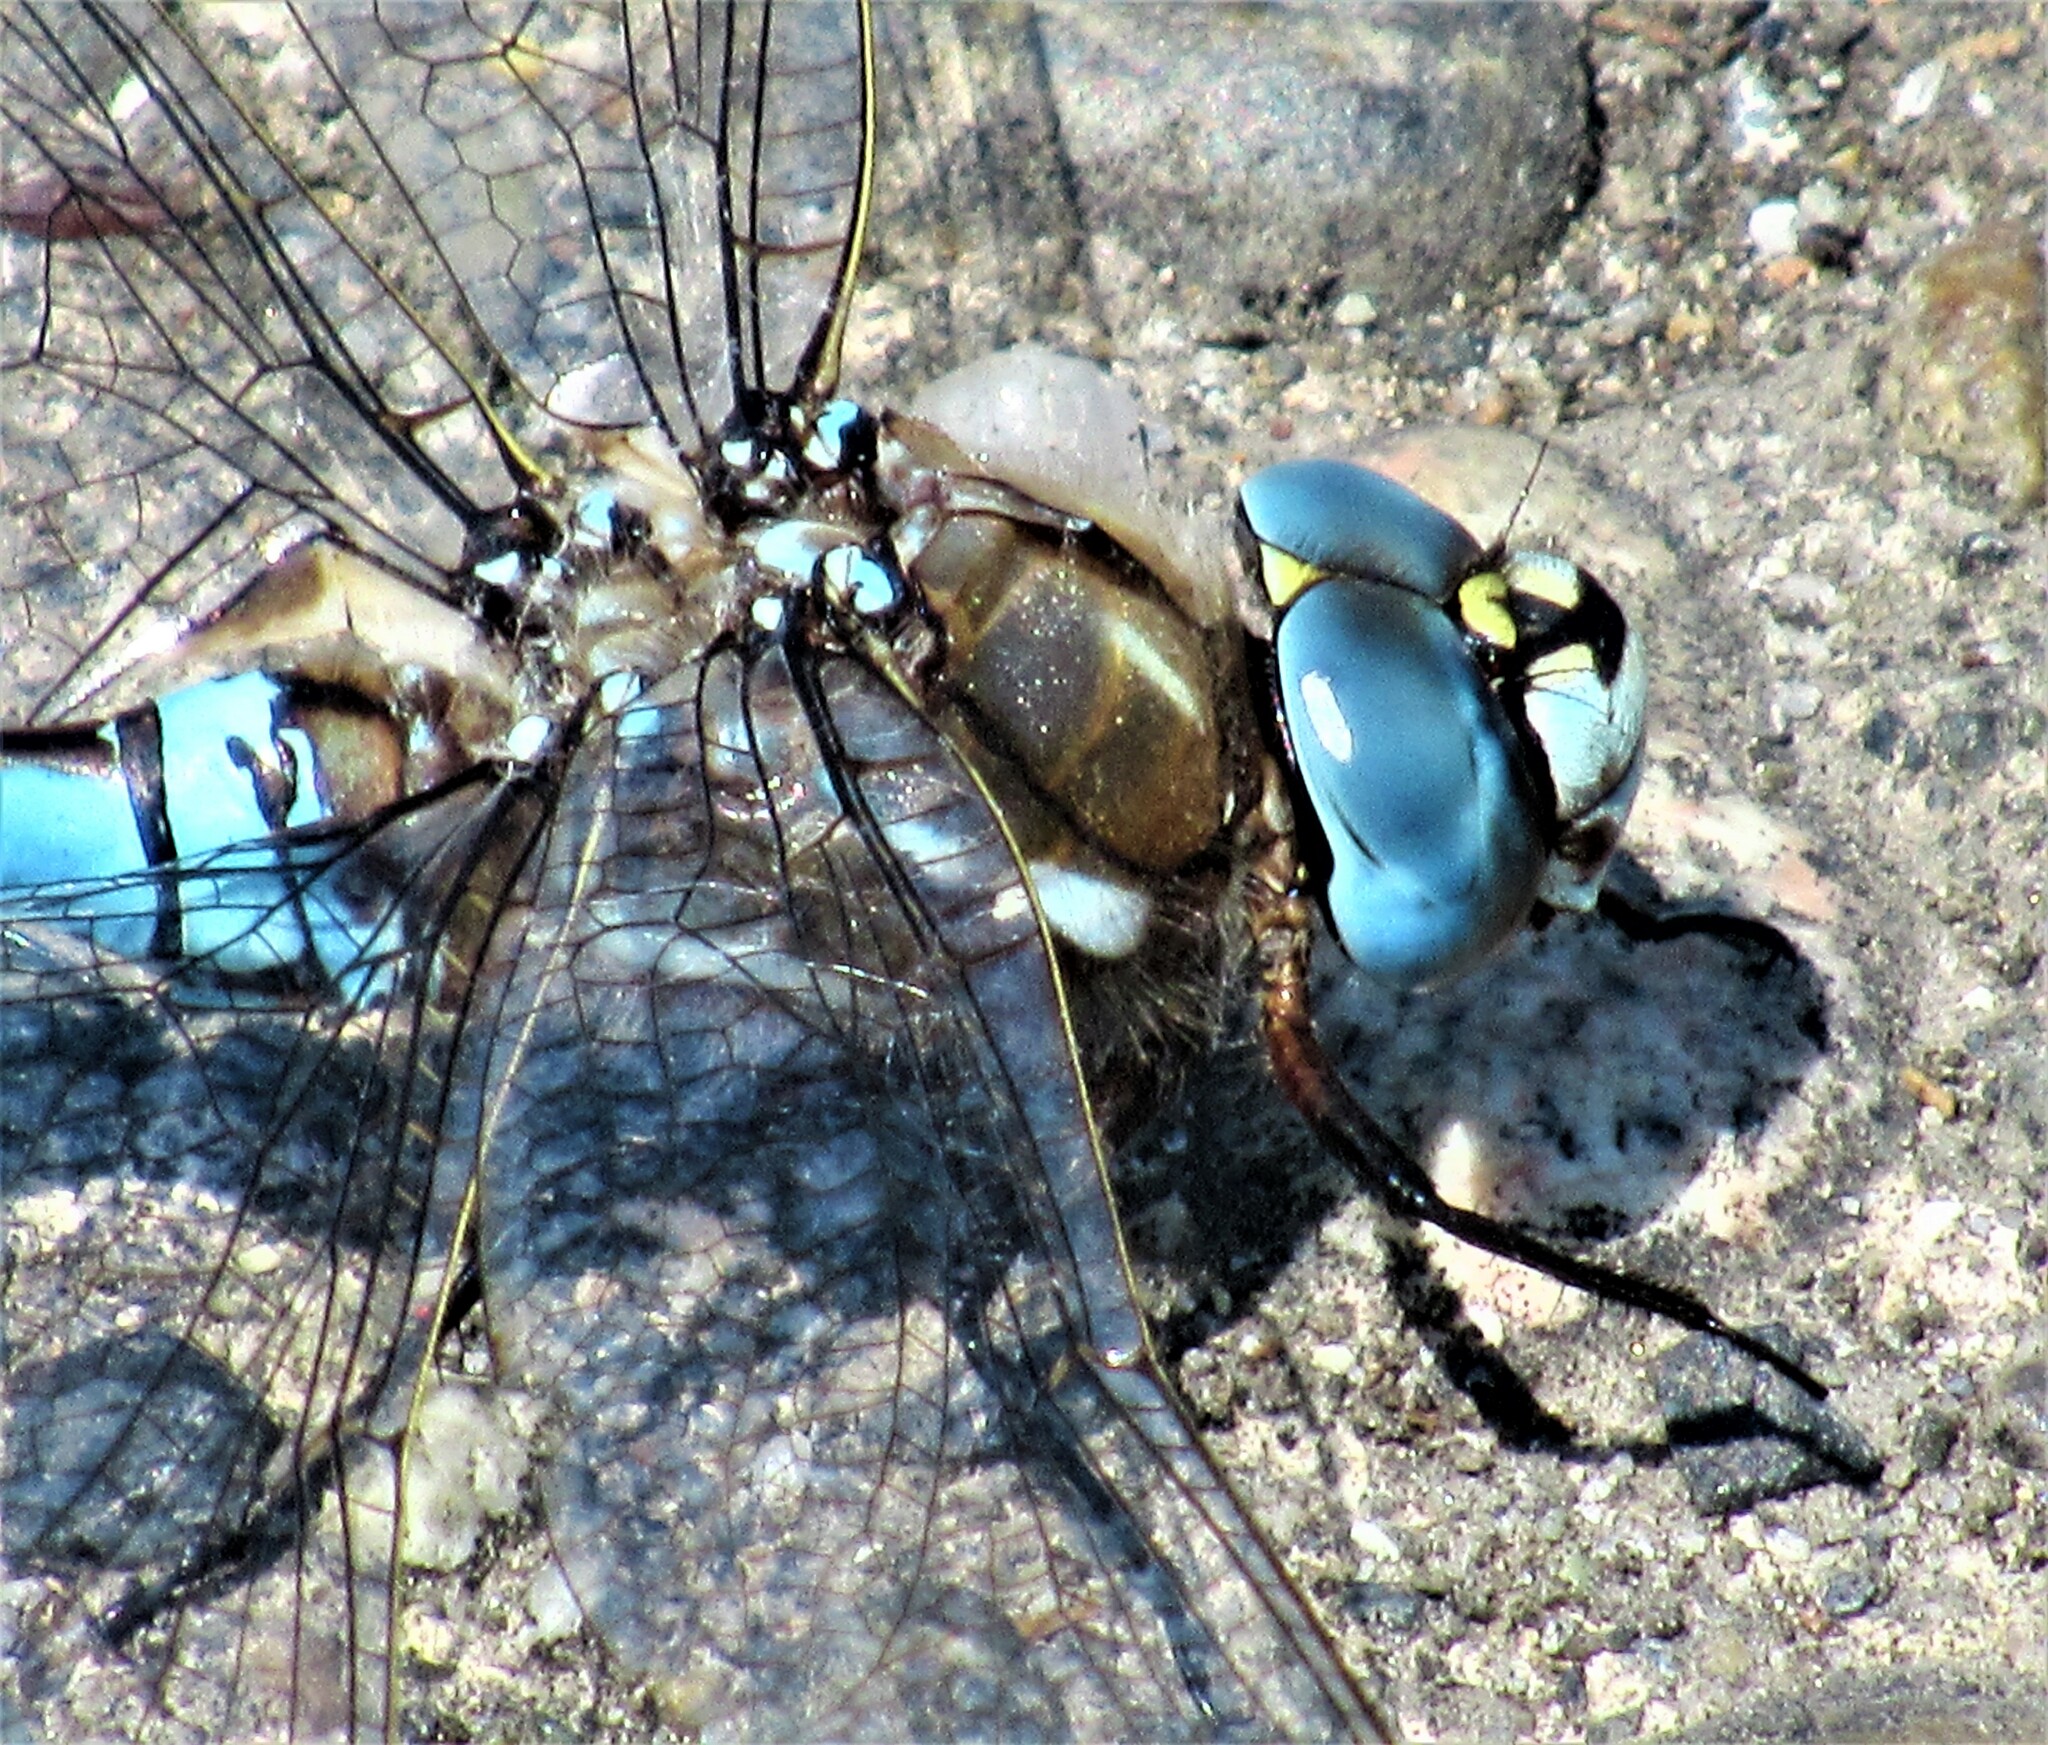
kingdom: Animalia
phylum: Arthropoda
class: Insecta
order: Odonata
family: Aeshnidae
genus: Rhionaeschna
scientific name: Rhionaeschna californica
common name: California darner
